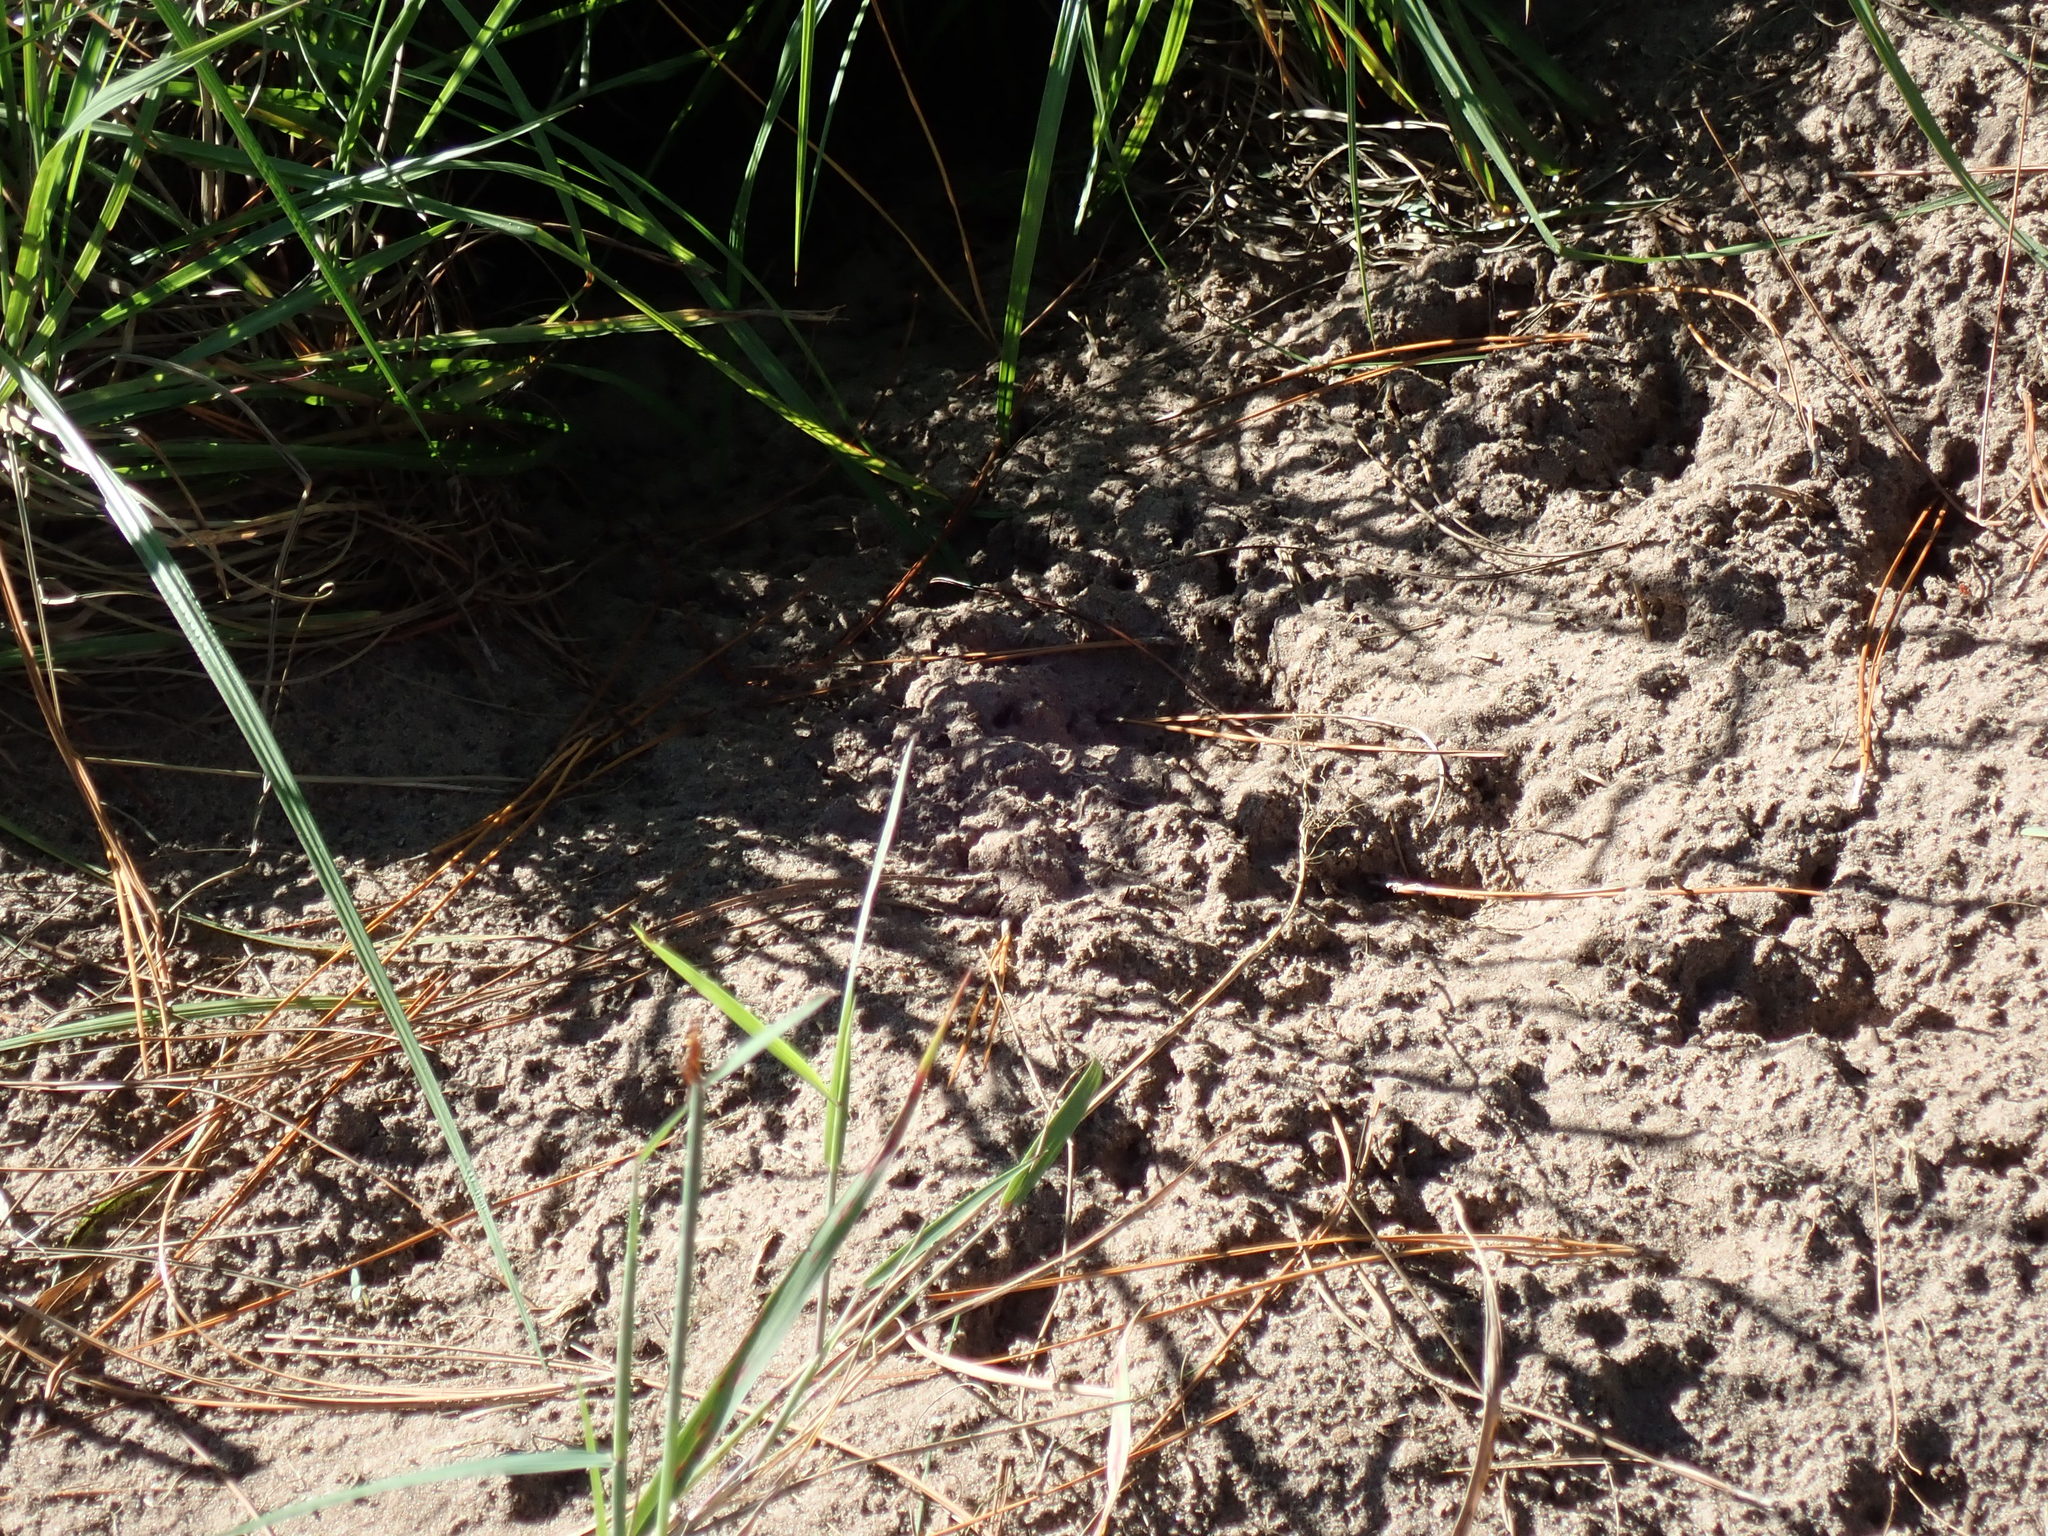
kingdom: Animalia
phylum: Chordata
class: Testudines
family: Testudinidae
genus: Gopherus
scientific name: Gopherus polyphemus
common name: Florida gopher tortoise
